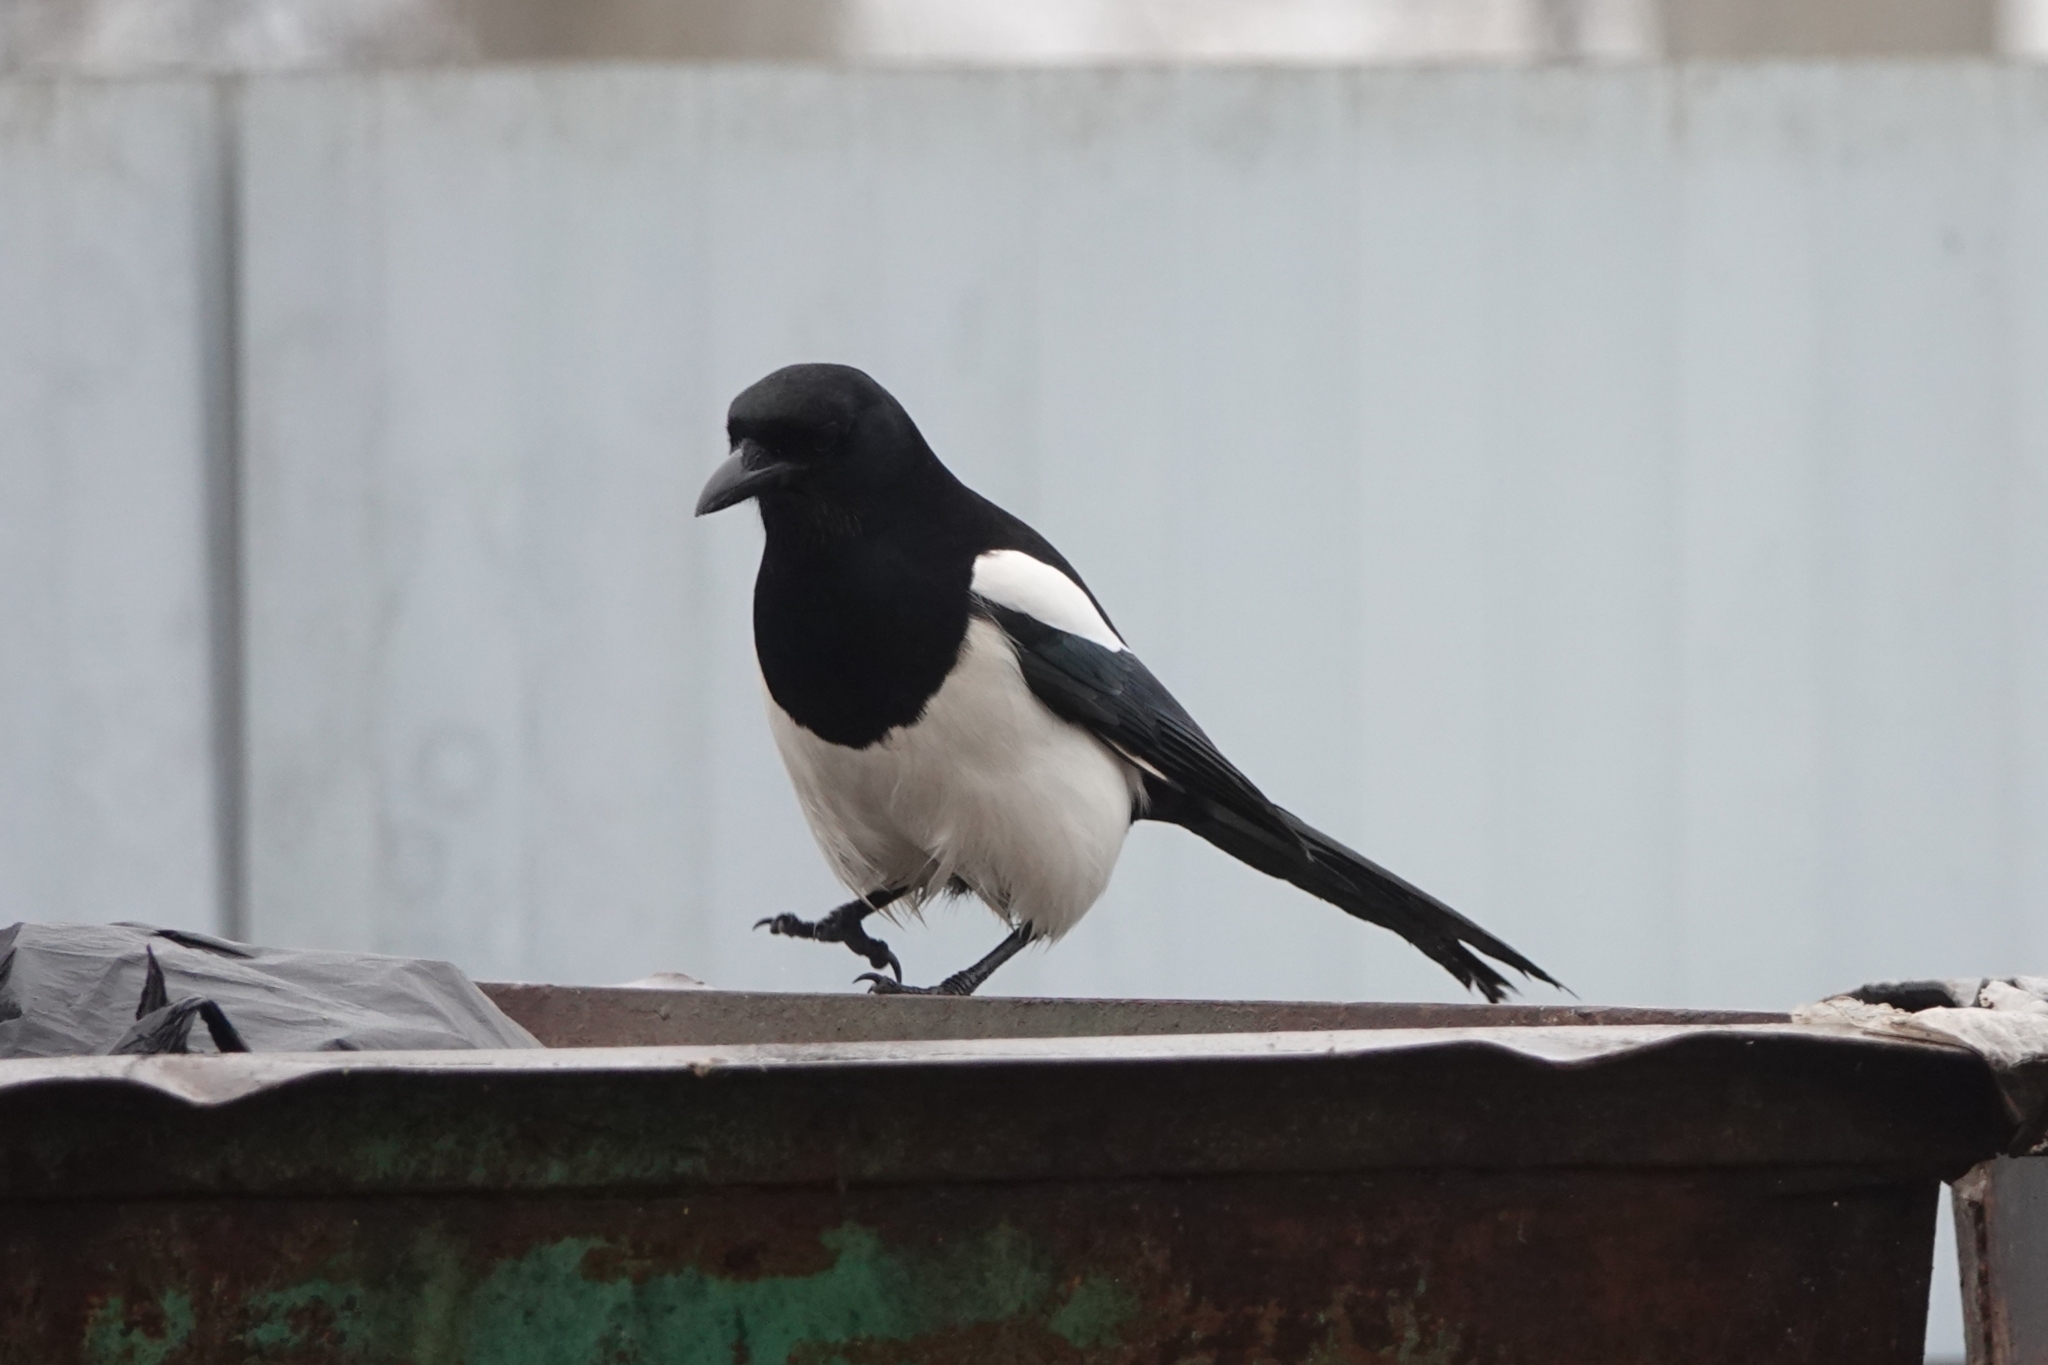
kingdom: Animalia
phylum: Chordata
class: Aves
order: Passeriformes
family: Corvidae
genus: Pica
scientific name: Pica pica
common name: Eurasian magpie
